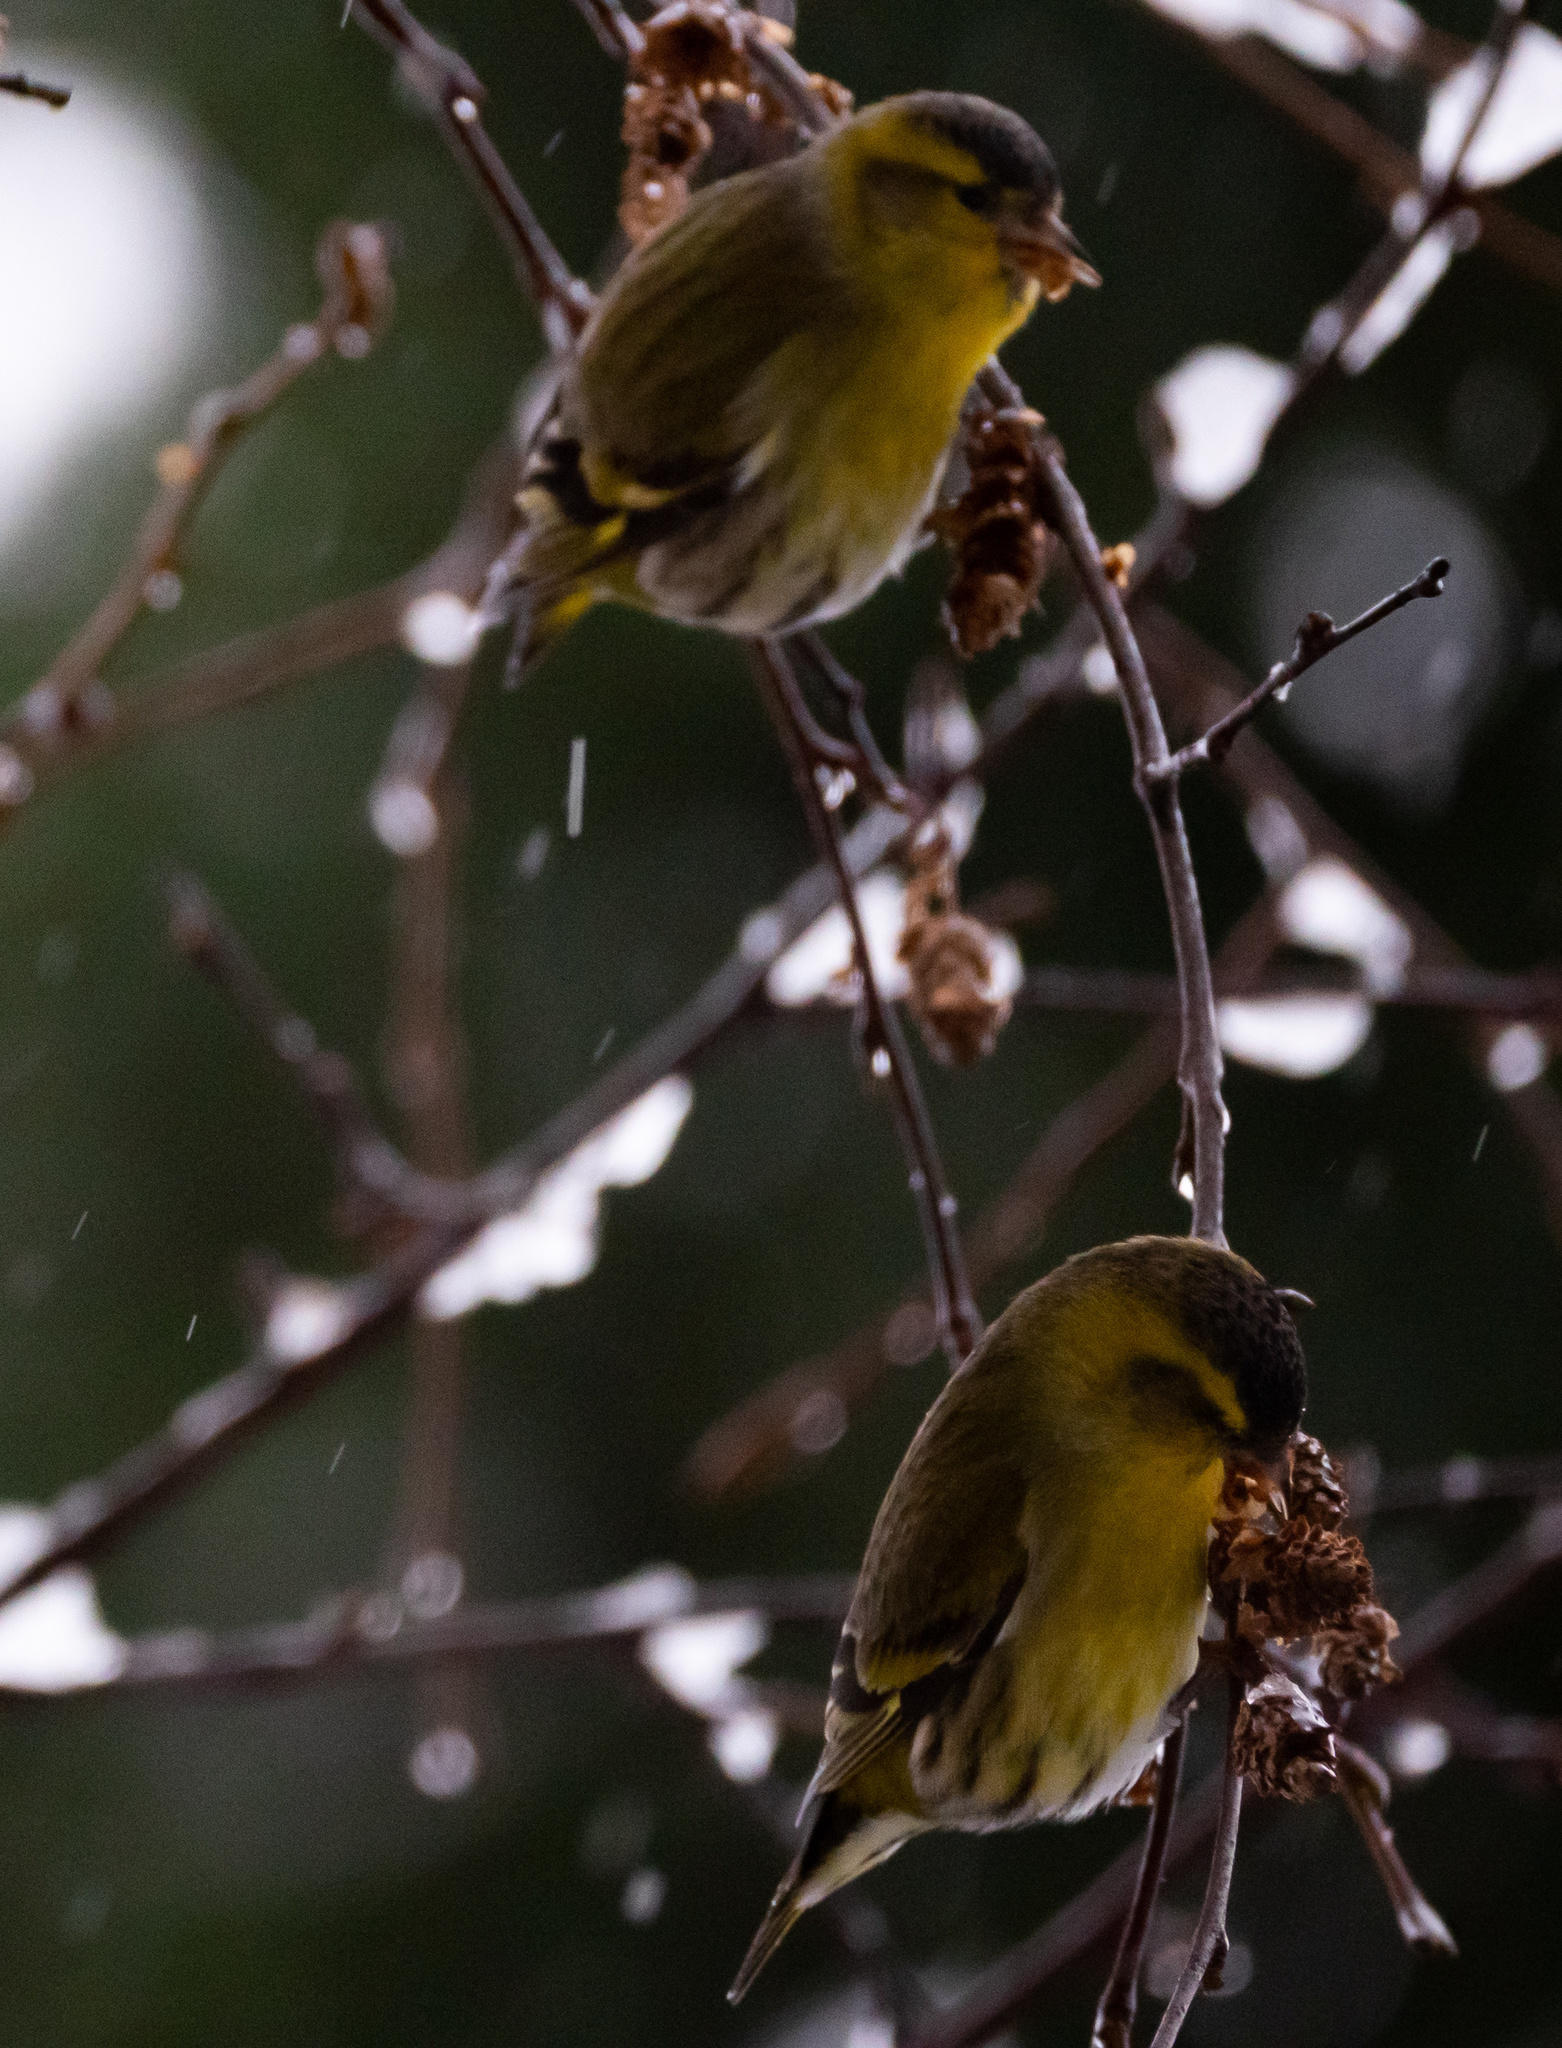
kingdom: Animalia
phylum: Chordata
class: Aves
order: Passeriformes
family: Fringillidae
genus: Spinus
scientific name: Spinus spinus
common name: Eurasian siskin
